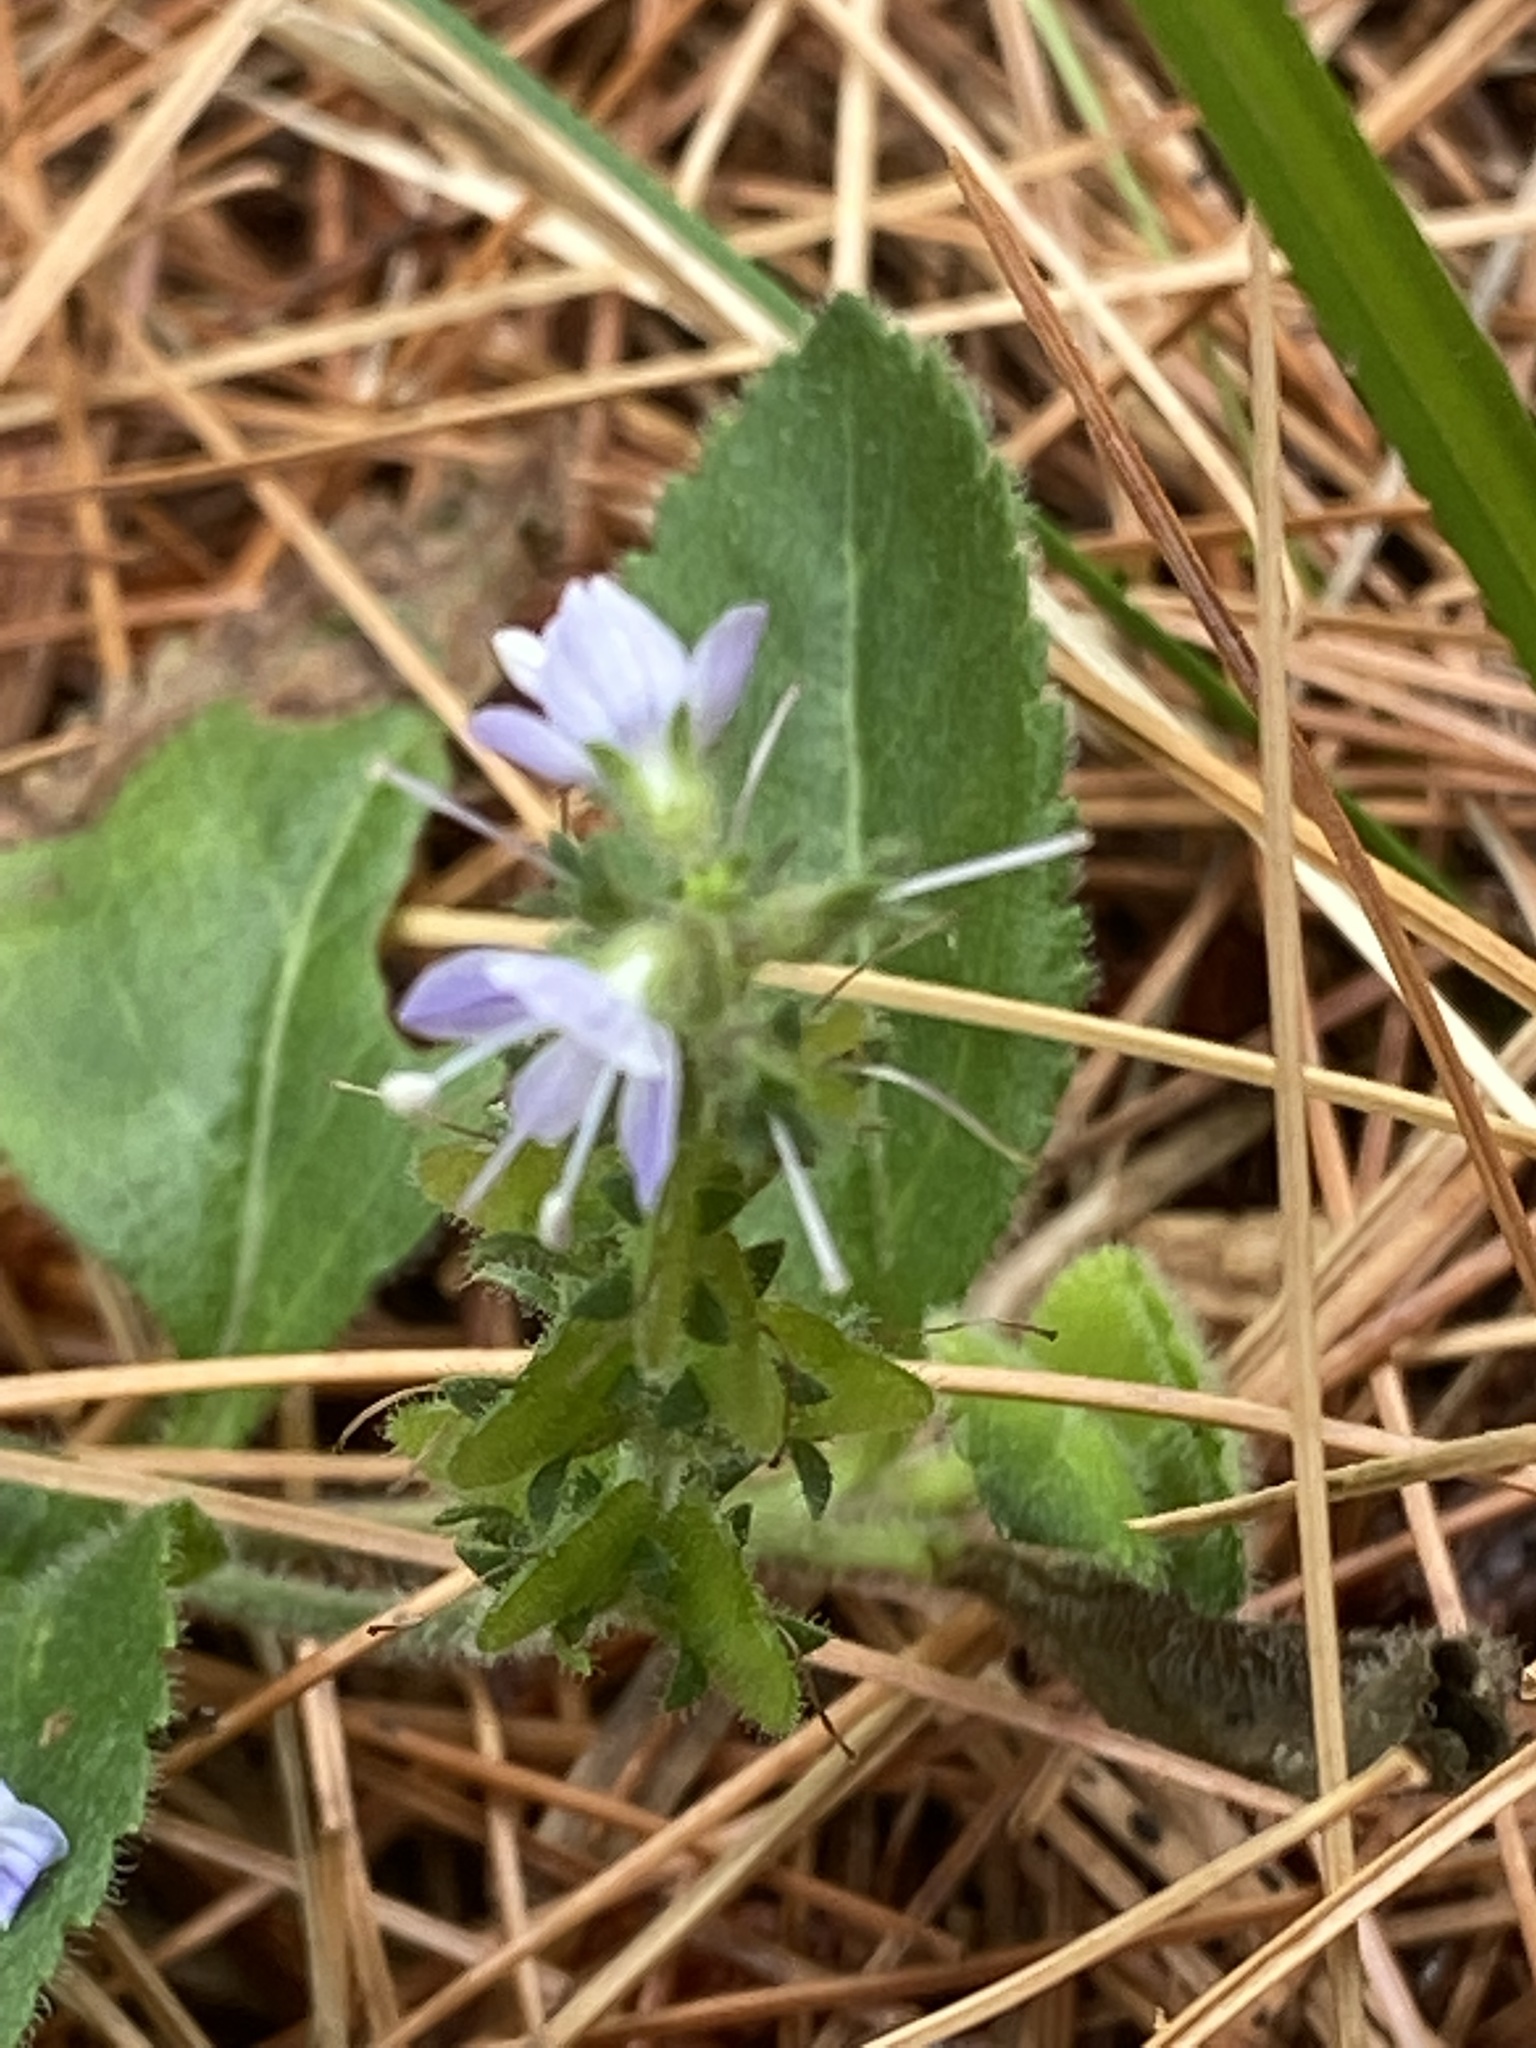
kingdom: Plantae
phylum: Tracheophyta
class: Magnoliopsida
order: Lamiales
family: Plantaginaceae
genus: Veronica
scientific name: Veronica officinalis
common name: Common speedwell
